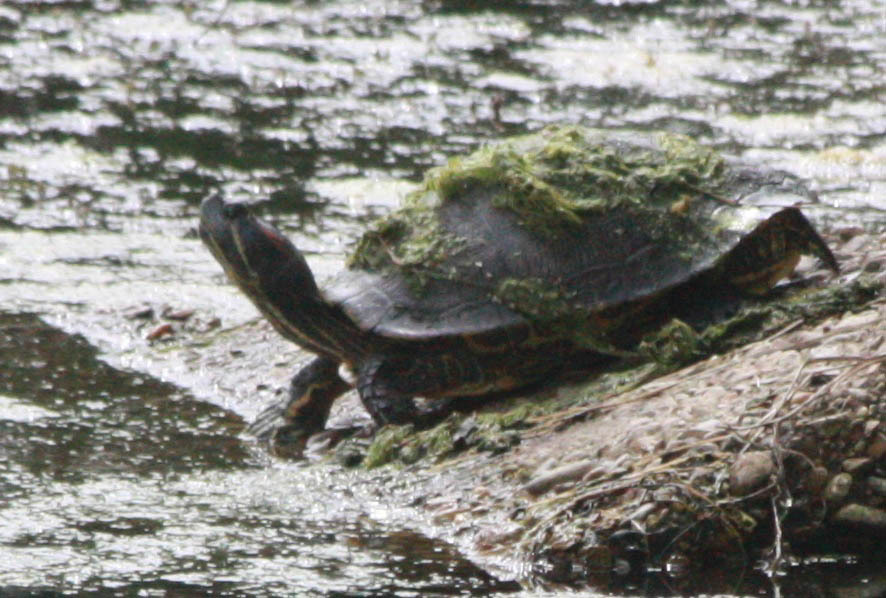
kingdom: Animalia
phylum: Chordata
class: Testudines
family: Emydidae
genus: Trachemys
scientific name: Trachemys scripta
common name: Slider
